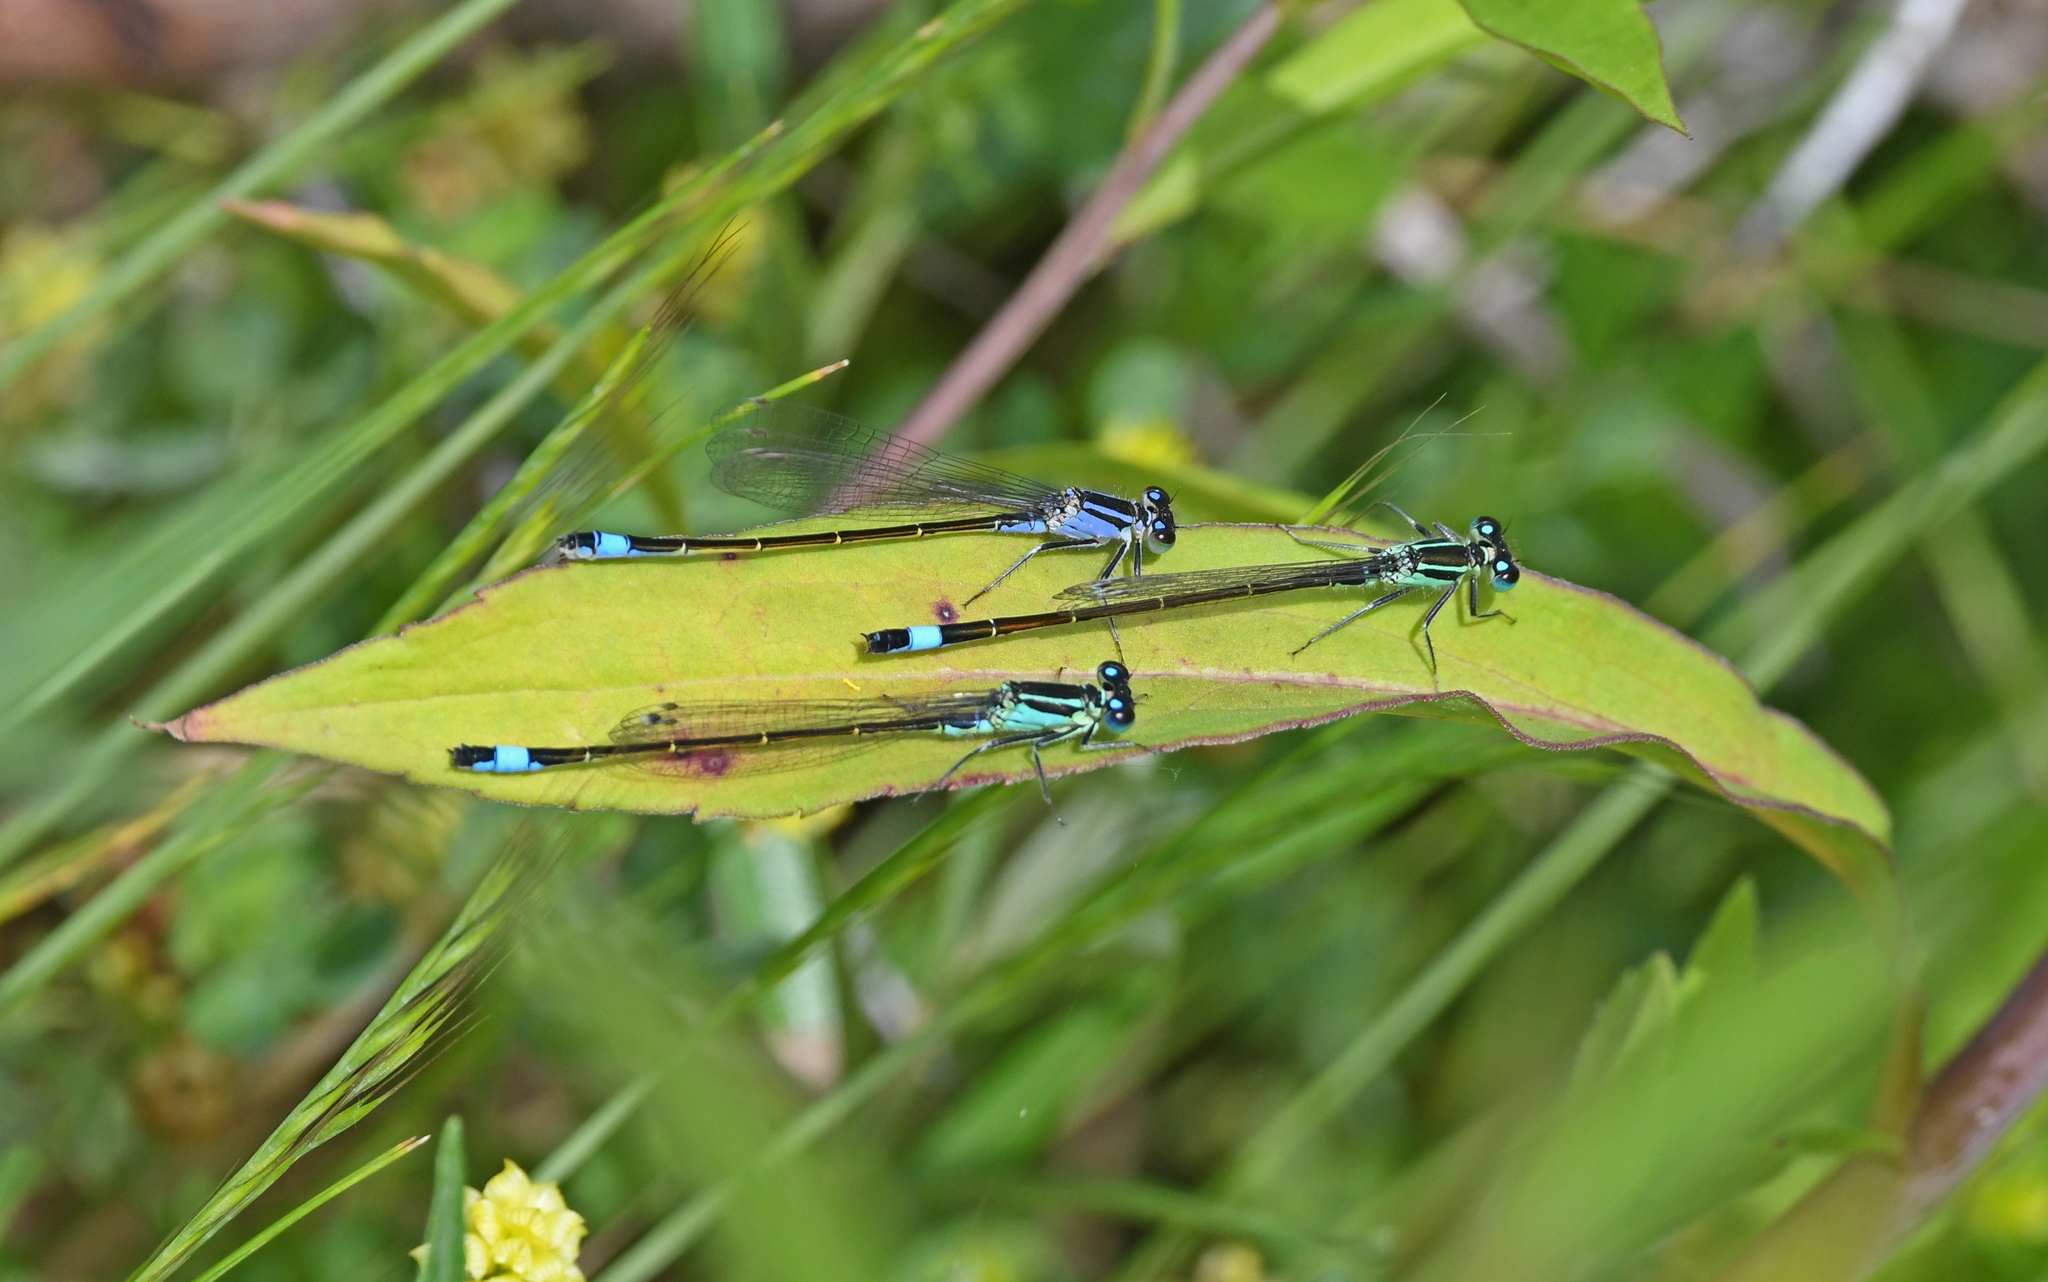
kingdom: Animalia
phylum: Arthropoda
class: Insecta
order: Odonata
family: Coenagrionidae
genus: Ischnura
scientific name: Ischnura elegans
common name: Blue-tailed damselfly
